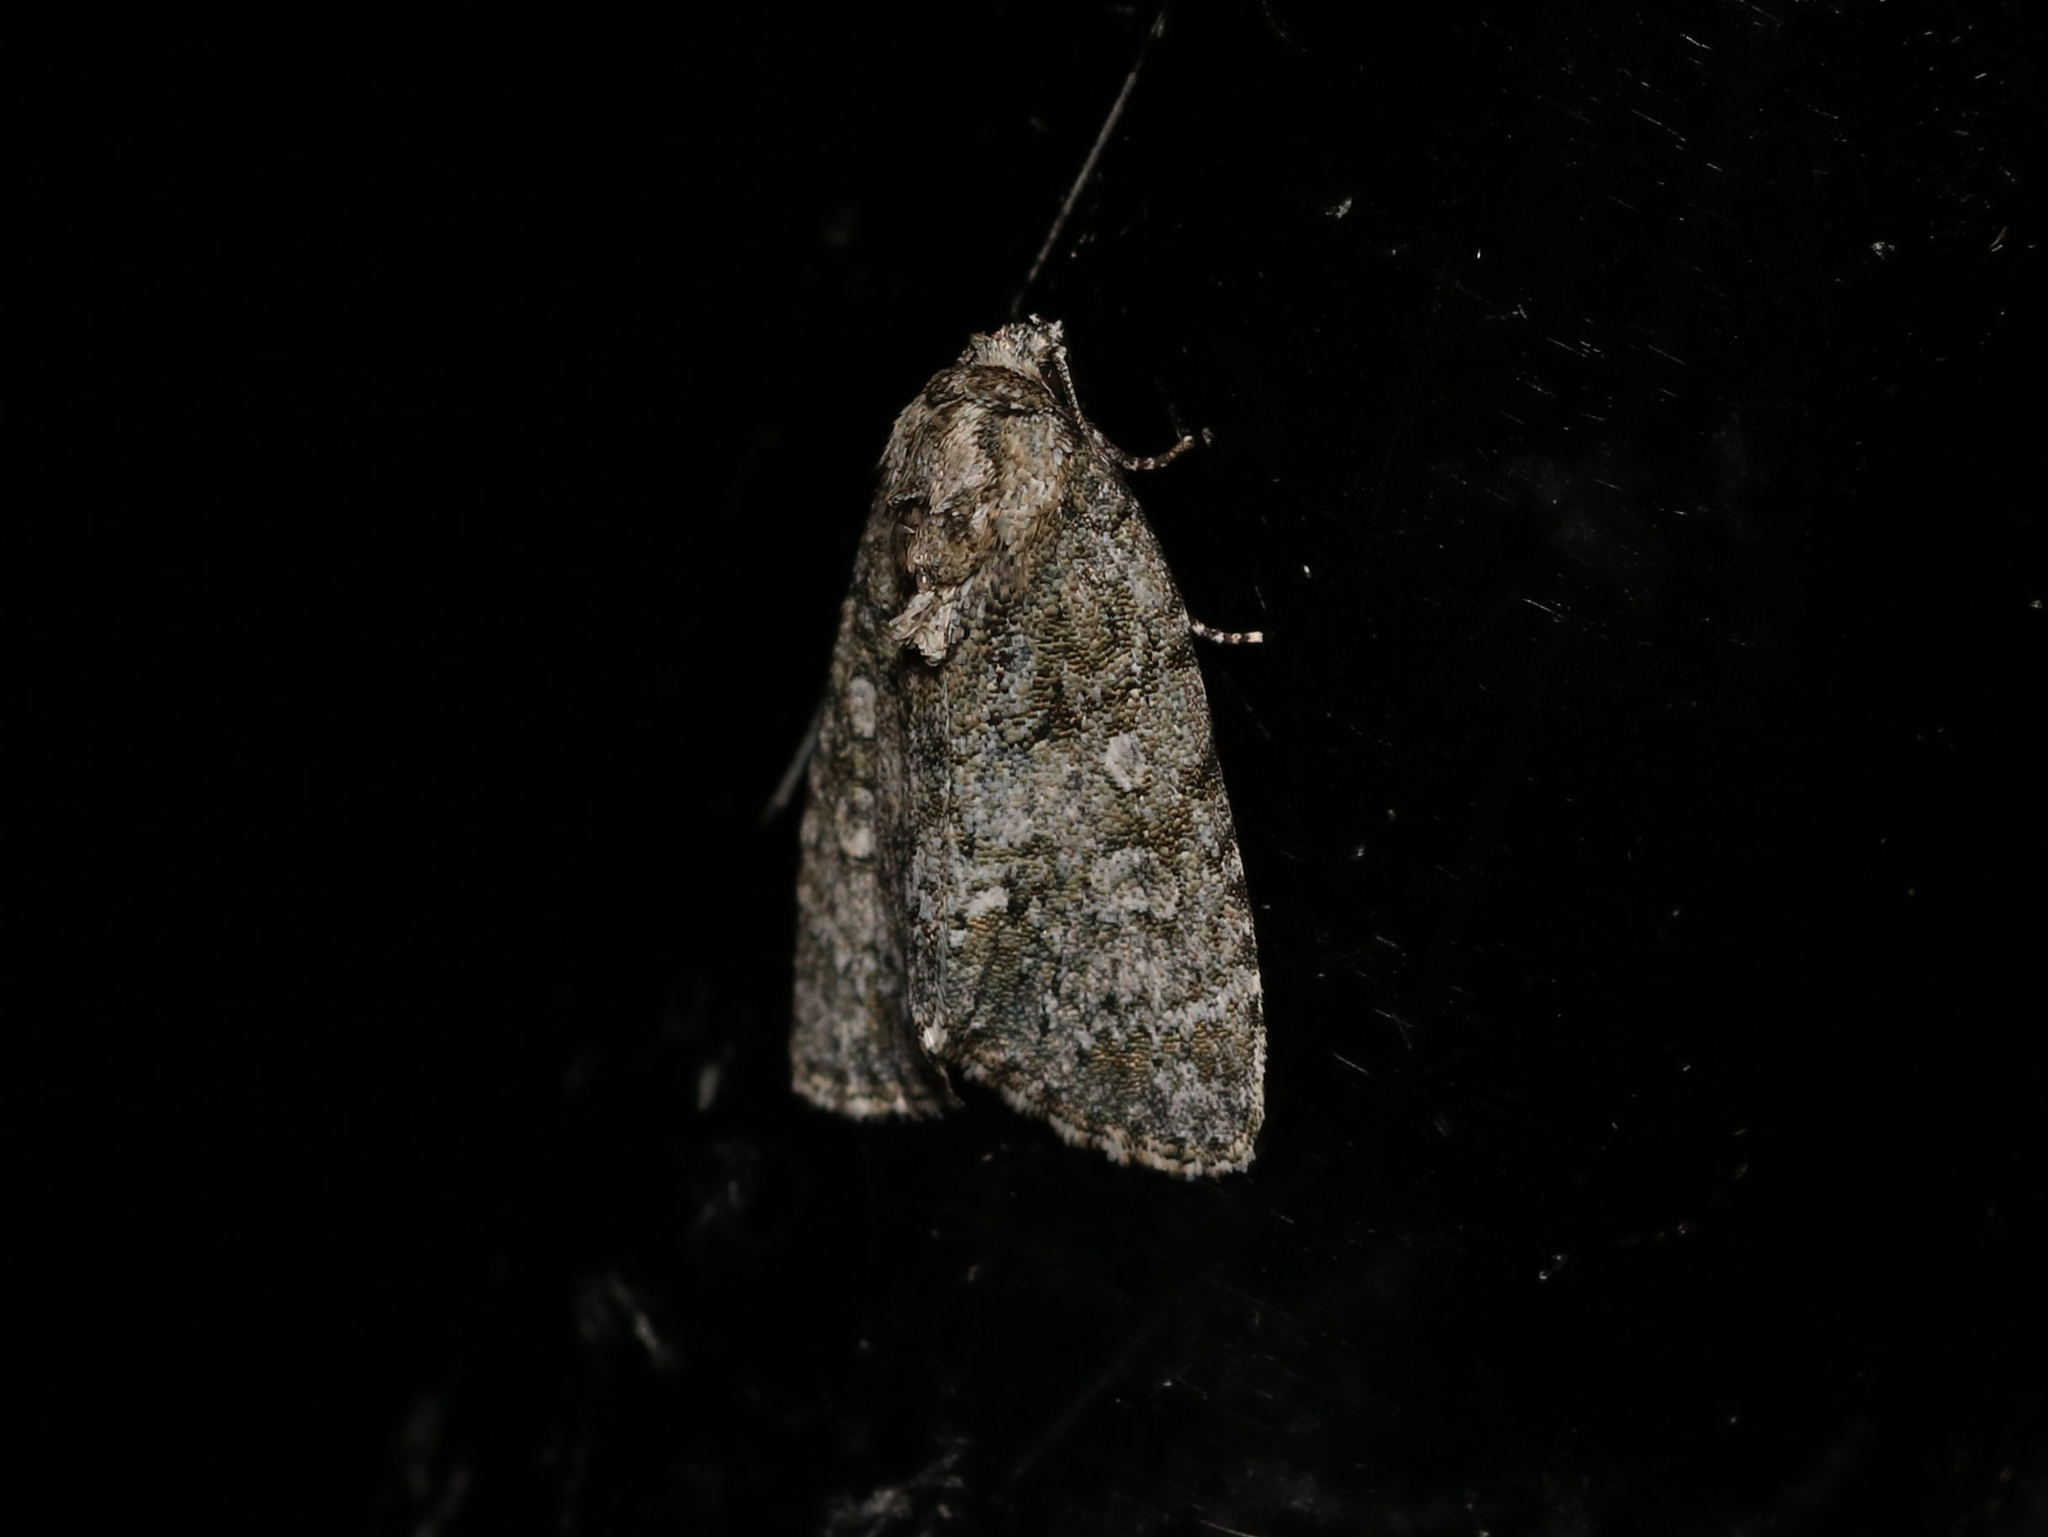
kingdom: Animalia
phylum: Arthropoda
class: Insecta
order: Lepidoptera
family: Noctuidae
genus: Acronicta
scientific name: Acronicta retardata
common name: Maple dagger
